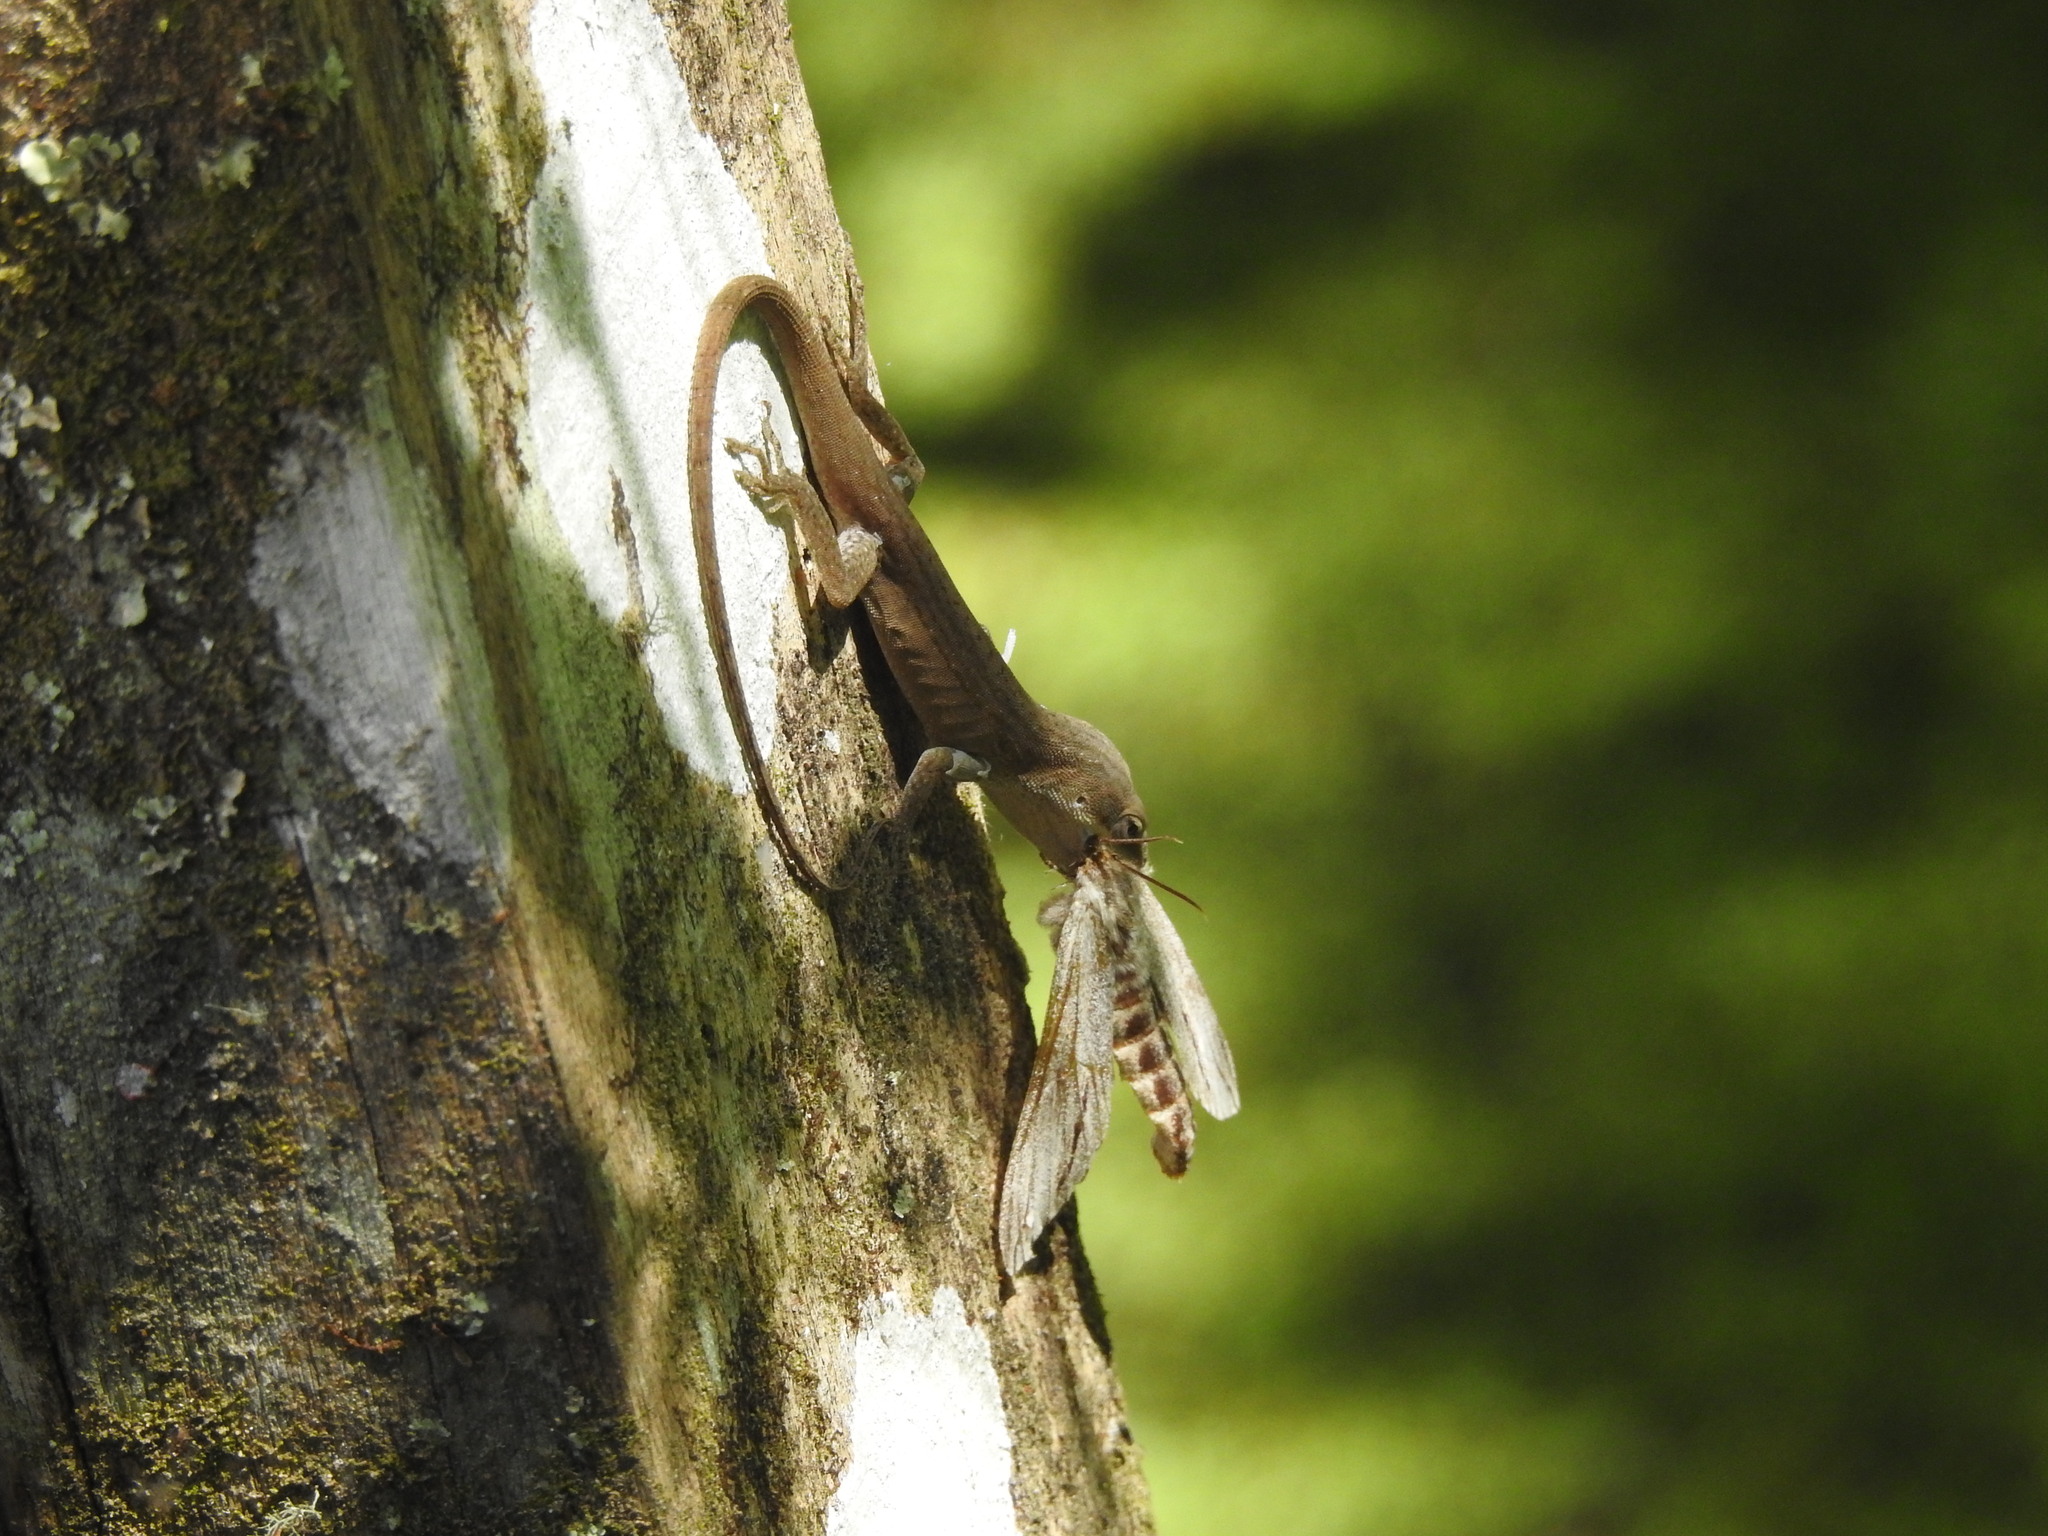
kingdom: Animalia
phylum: Chordata
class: Squamata
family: Dactyloidae
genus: Anolis
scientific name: Anolis carolinensis
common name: Green anole
